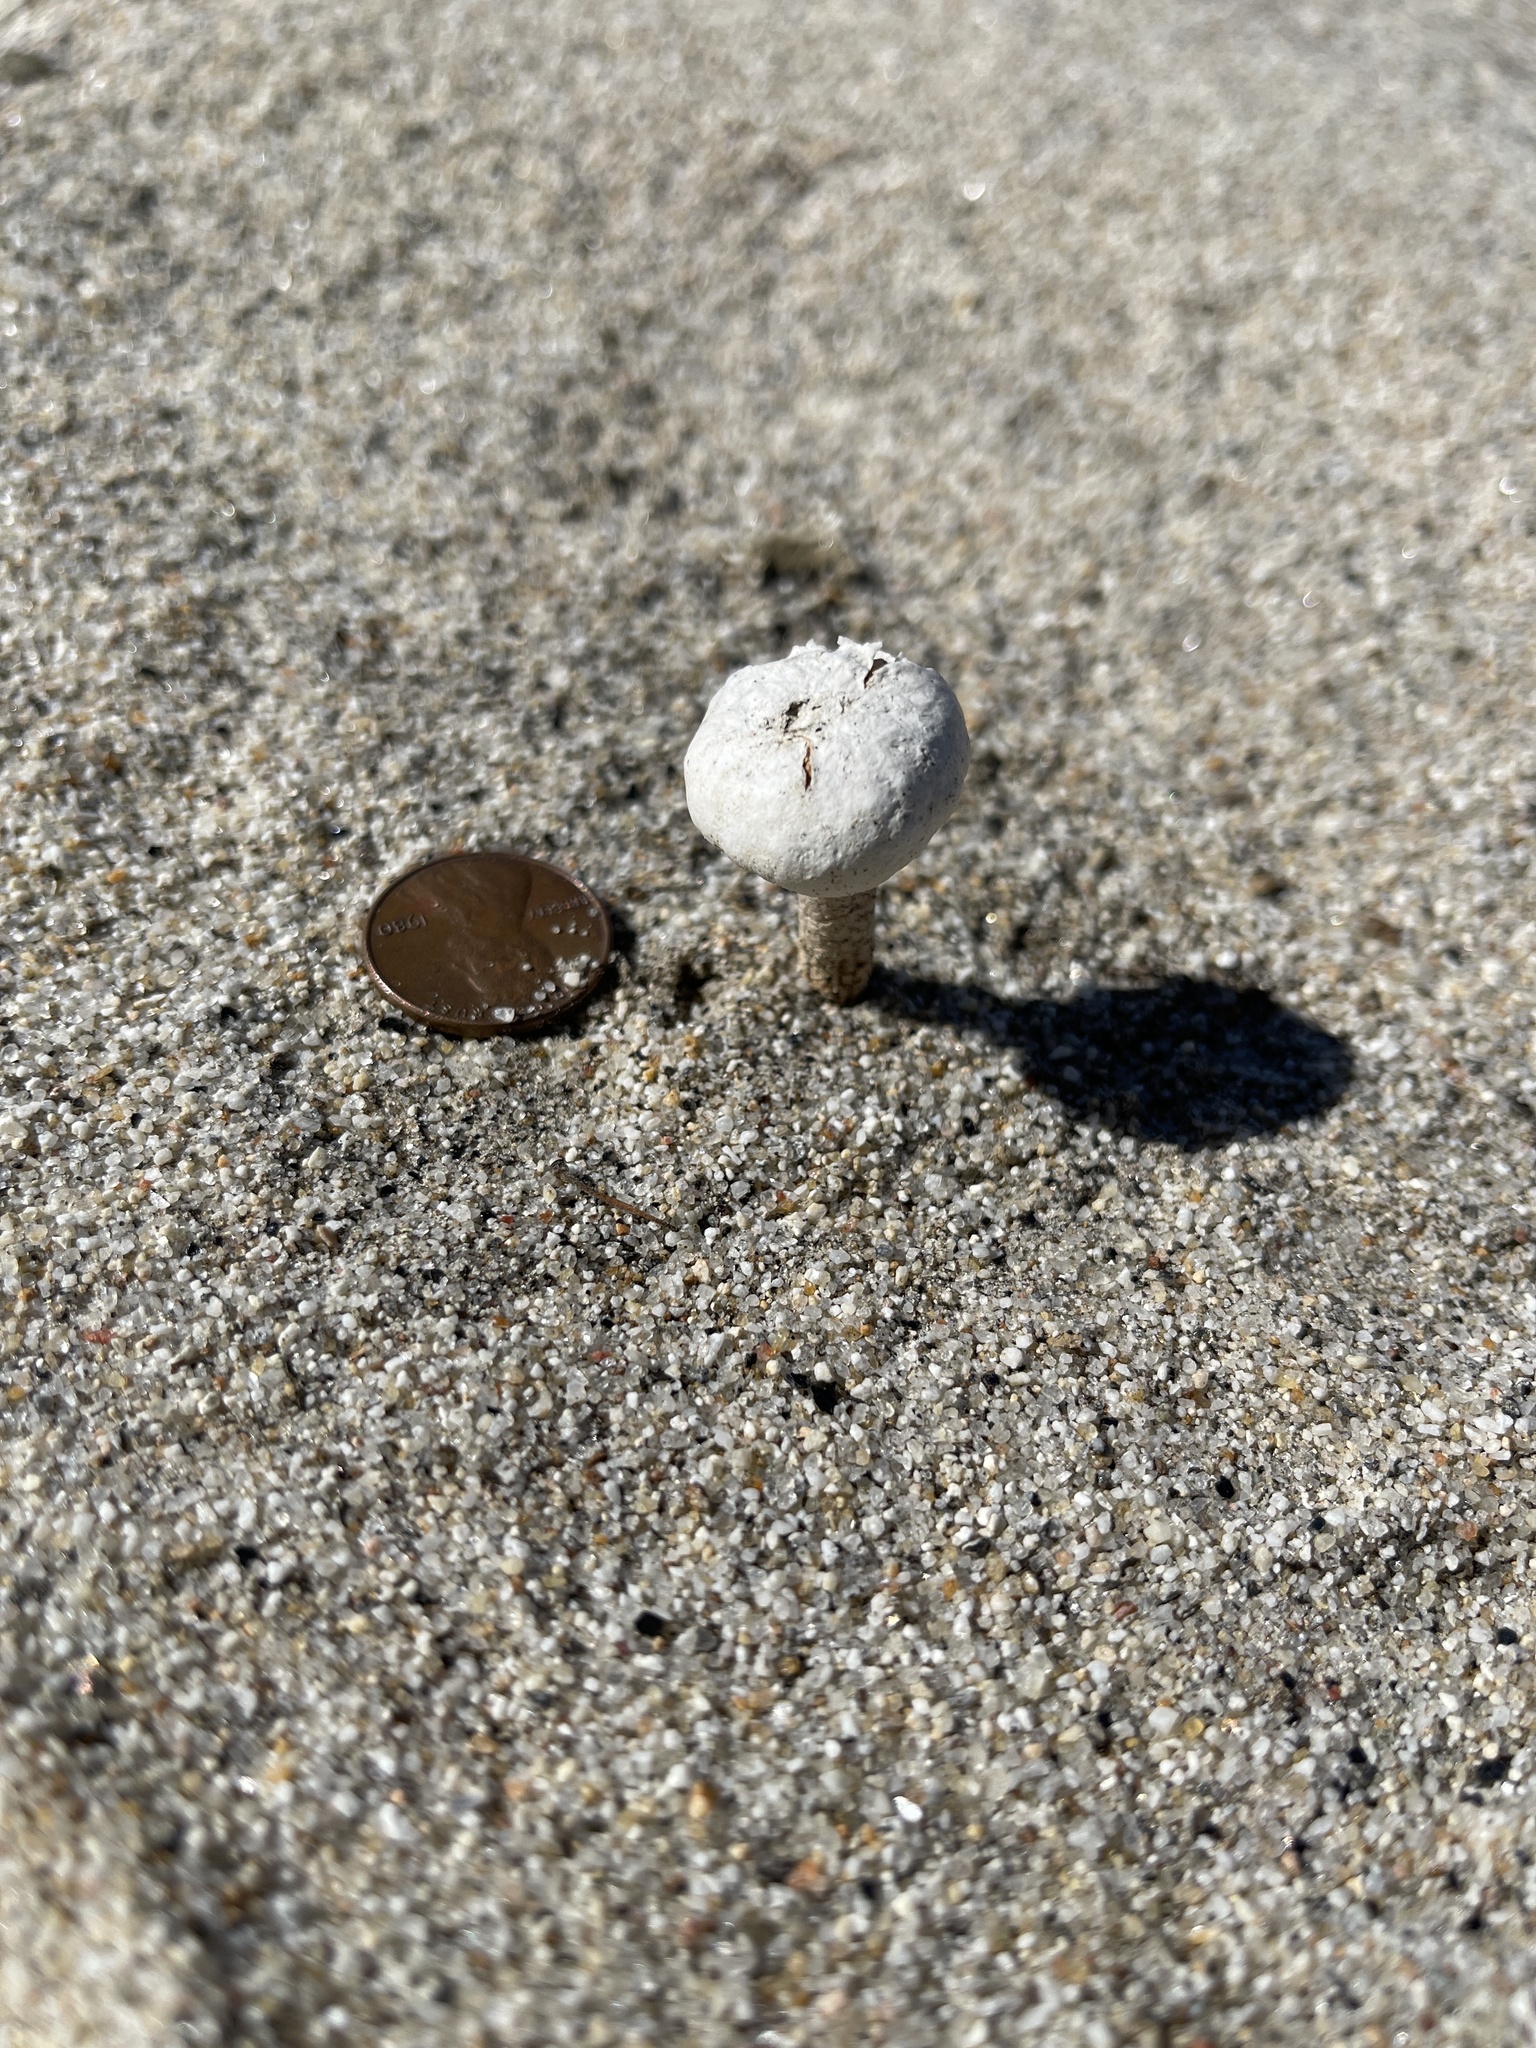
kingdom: Fungi
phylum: Basidiomycota
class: Agaricomycetes
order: Agaricales
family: Agaricaceae
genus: Battarrea
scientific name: Battarrea phalloides
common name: Sandy stiltball
